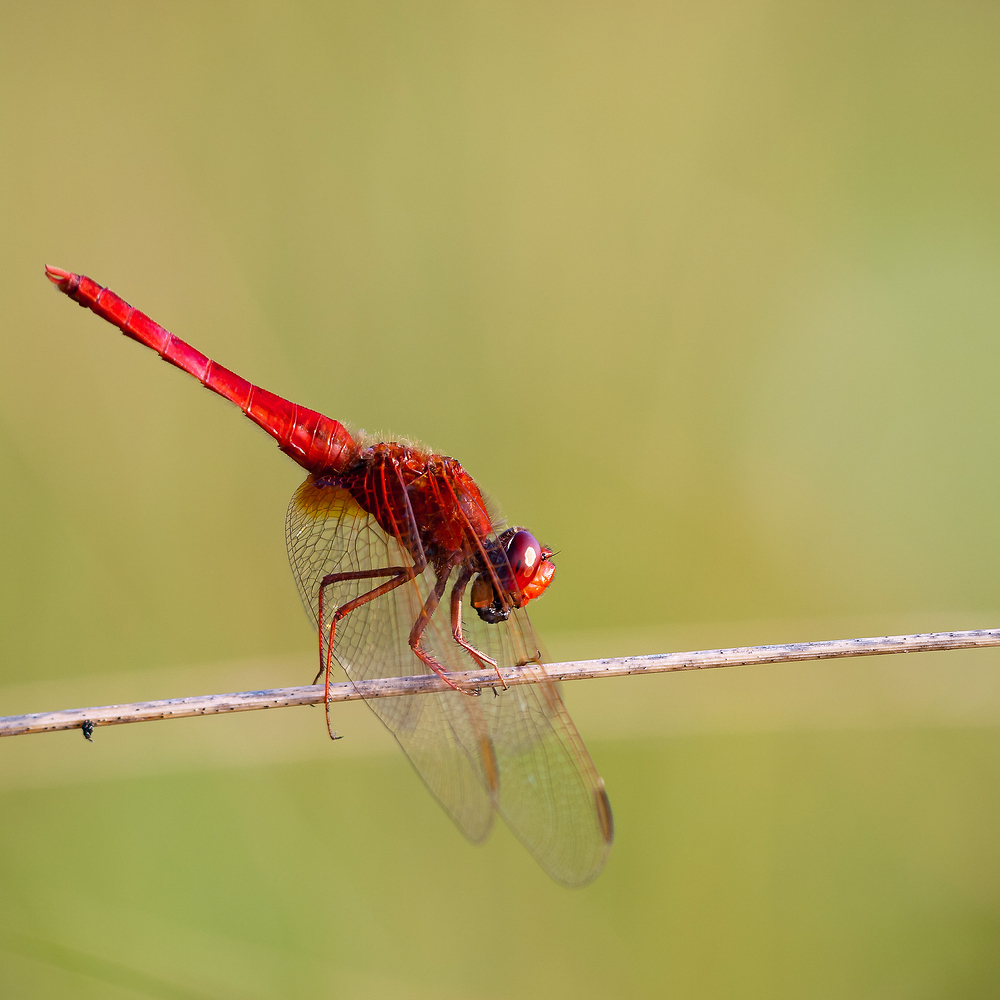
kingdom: Animalia
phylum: Arthropoda
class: Insecta
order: Odonata
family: Libellulidae
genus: Crocothemis
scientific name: Crocothemis erythraea
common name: Scarlet dragonfly
